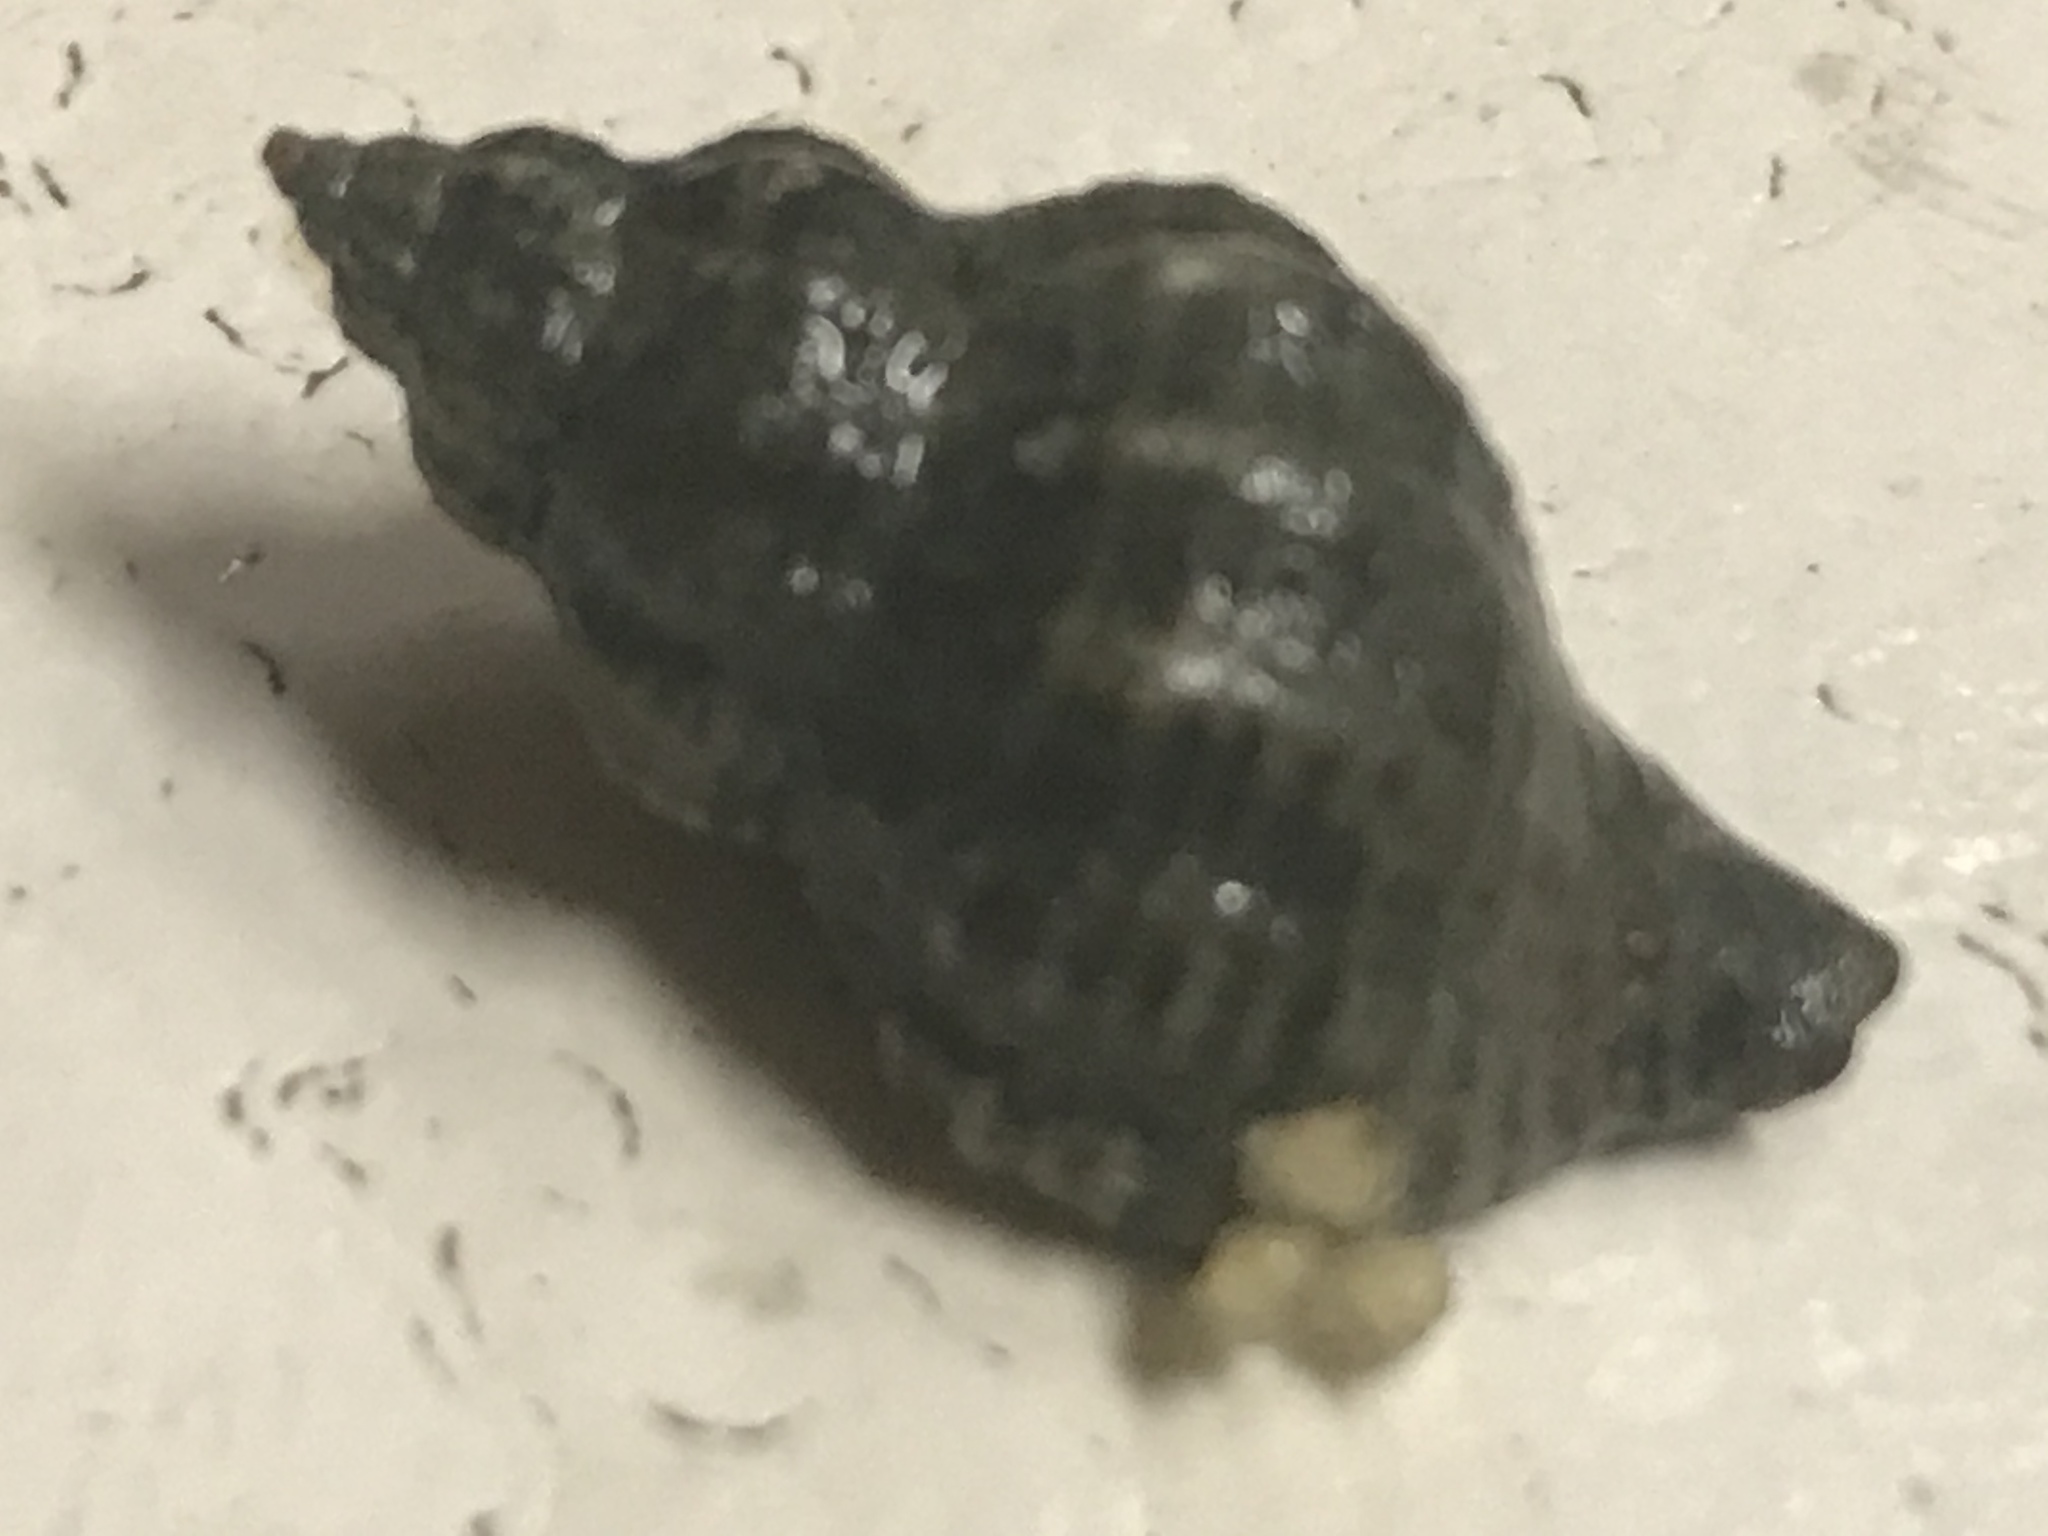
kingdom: Animalia
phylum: Mollusca
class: Gastropoda
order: Neogastropoda
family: Muricidae
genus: Urosalpinx
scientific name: Urosalpinx cinerea
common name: American sting winkle
